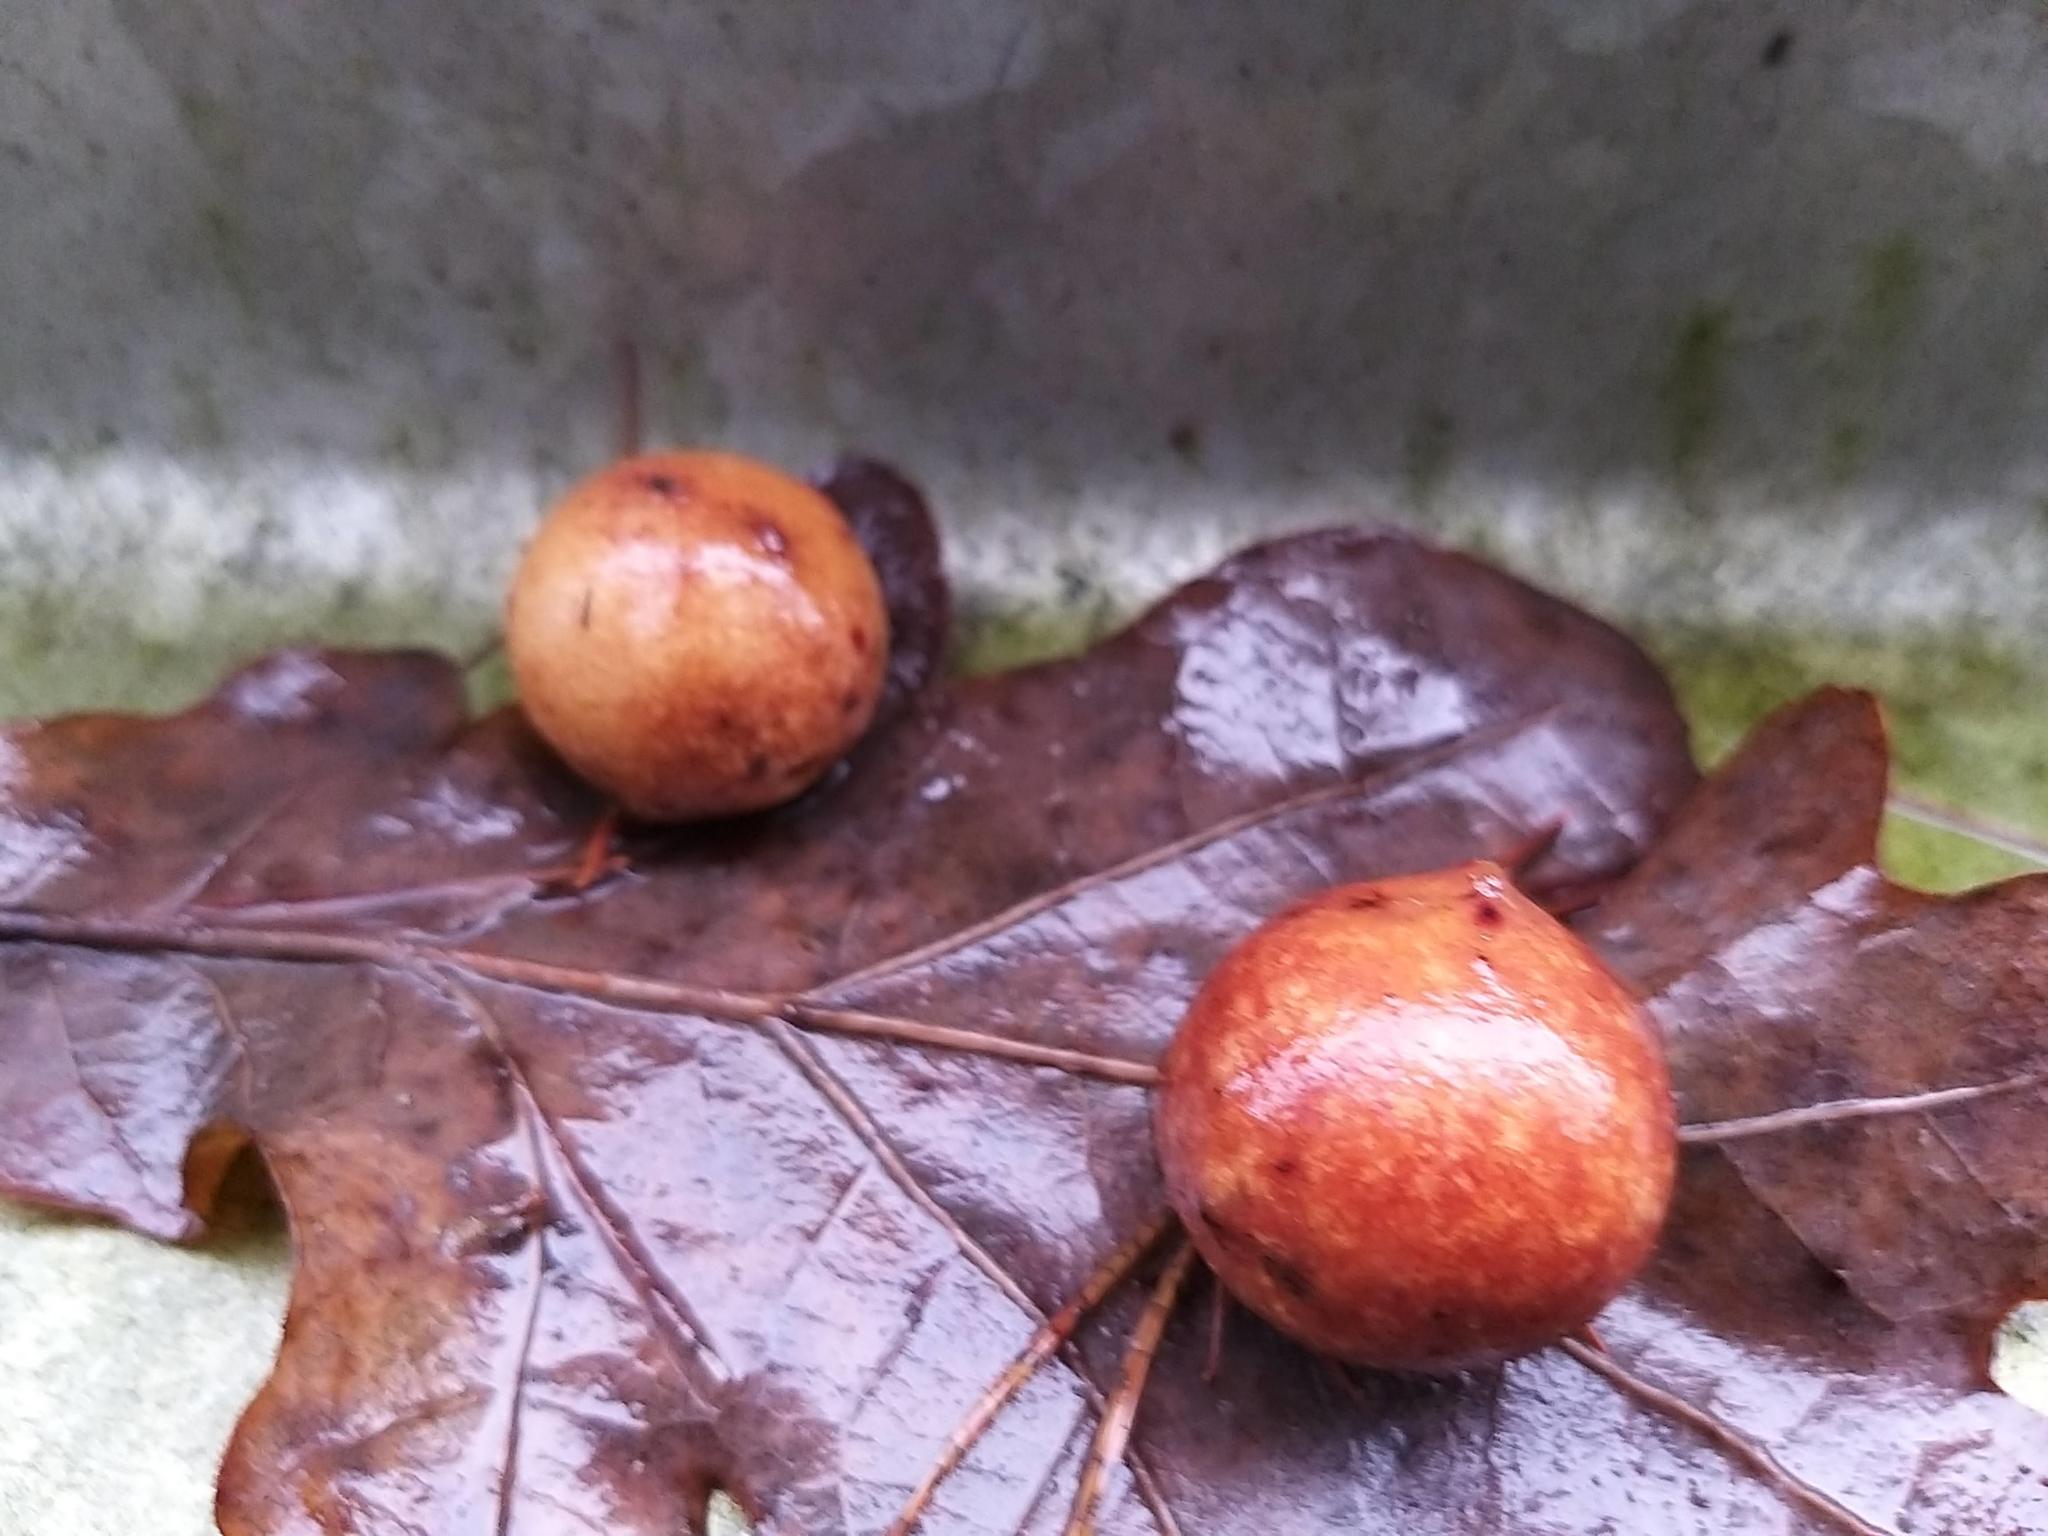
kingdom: Animalia
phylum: Arthropoda
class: Insecta
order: Hymenoptera
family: Cynipidae
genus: Cynips
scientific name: Cynips quercusfolii
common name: Cherry gall
